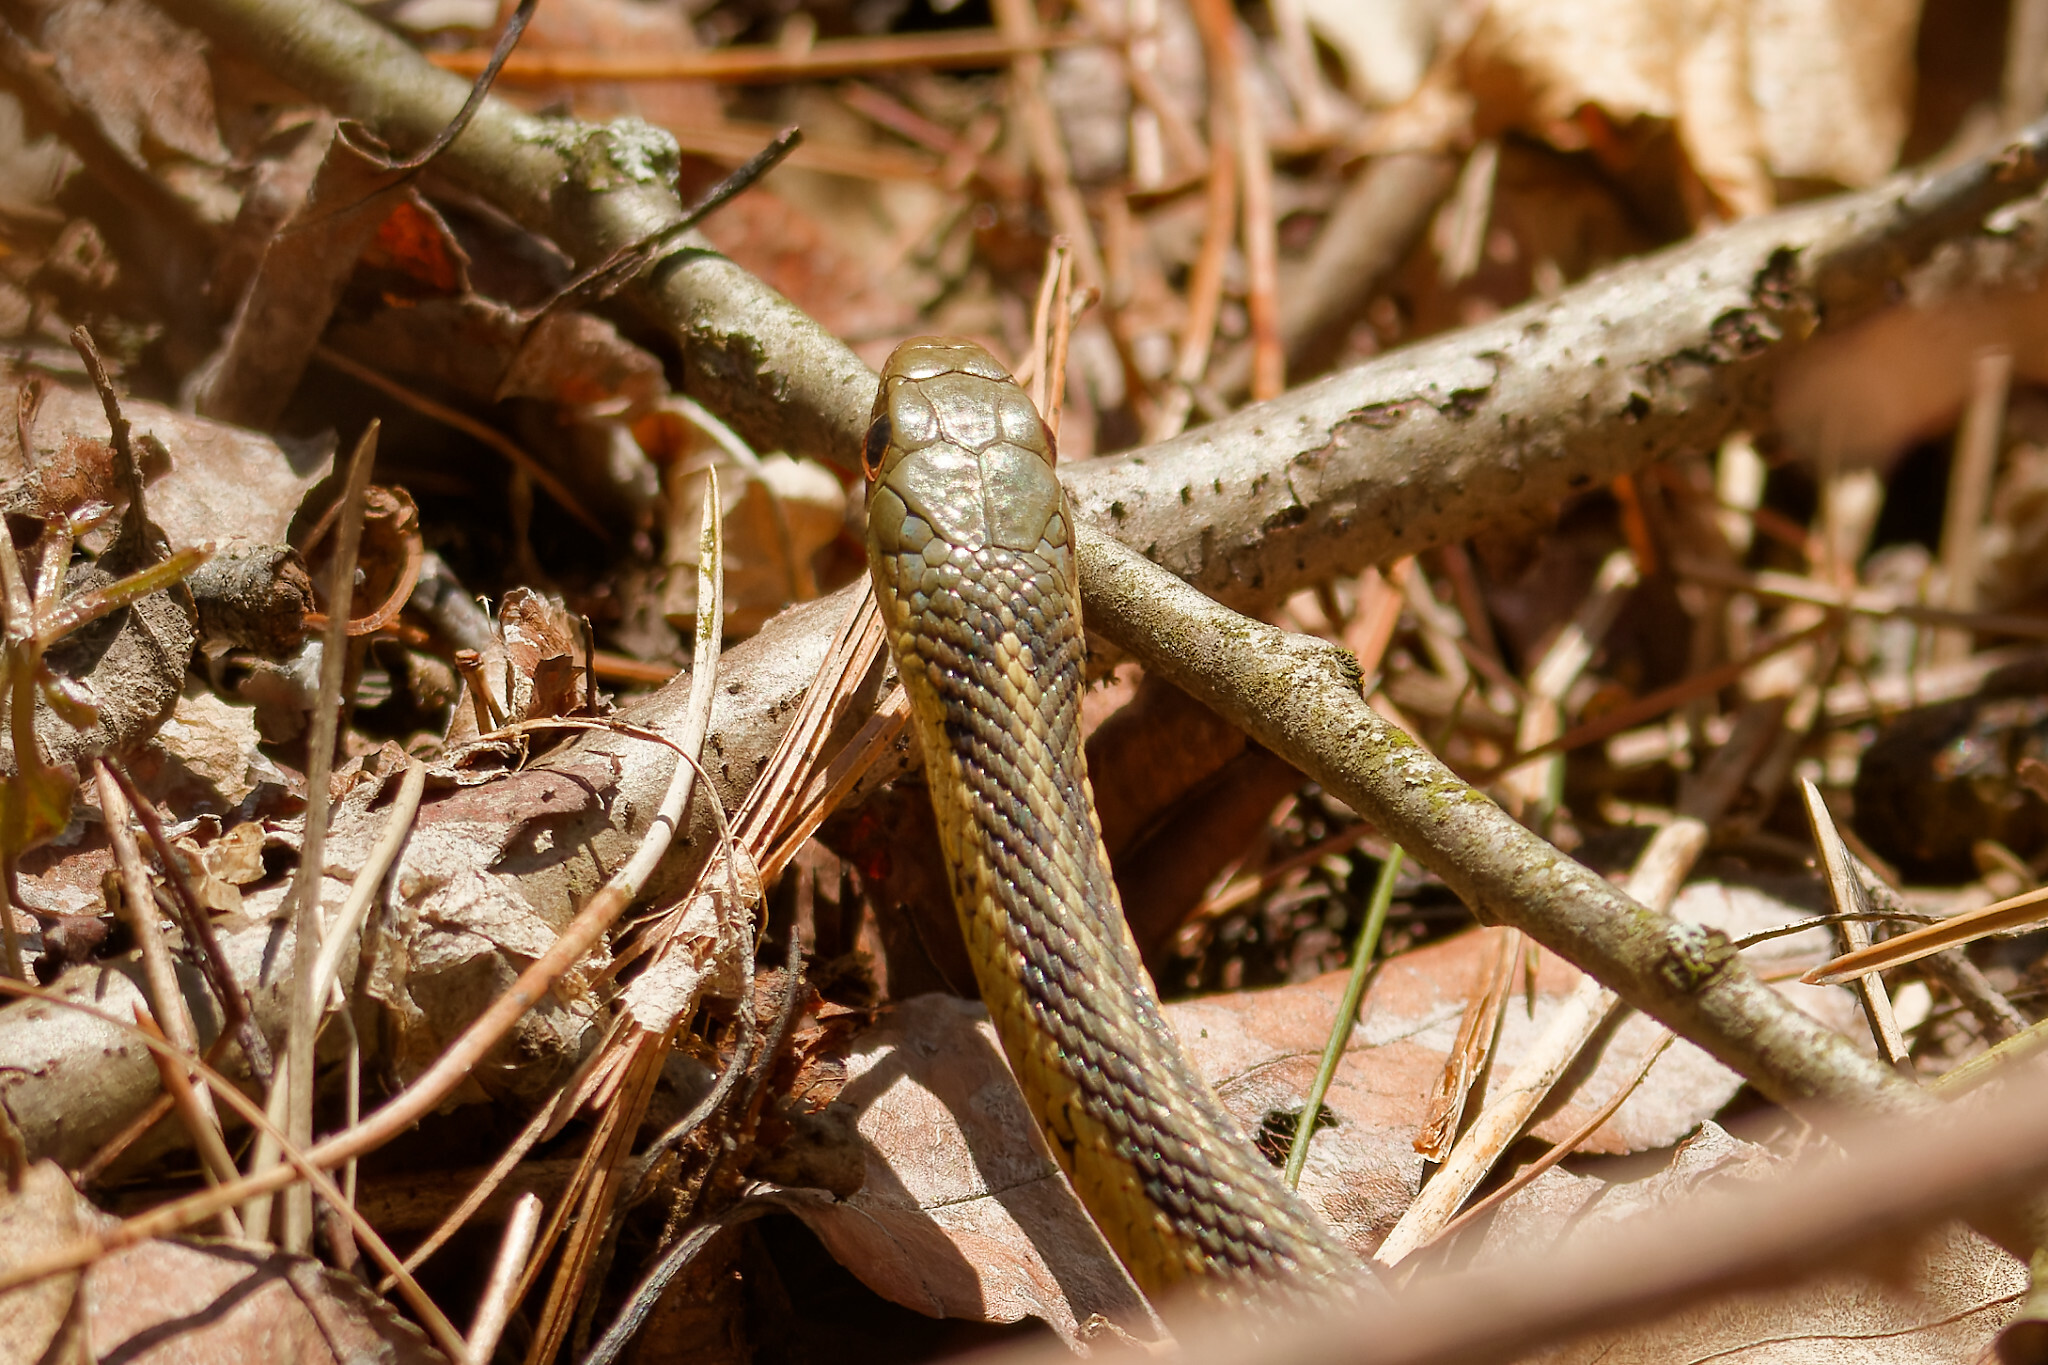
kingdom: Animalia
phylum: Chordata
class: Squamata
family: Colubridae
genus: Thamnophis
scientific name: Thamnophis sirtalis
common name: Common garter snake
